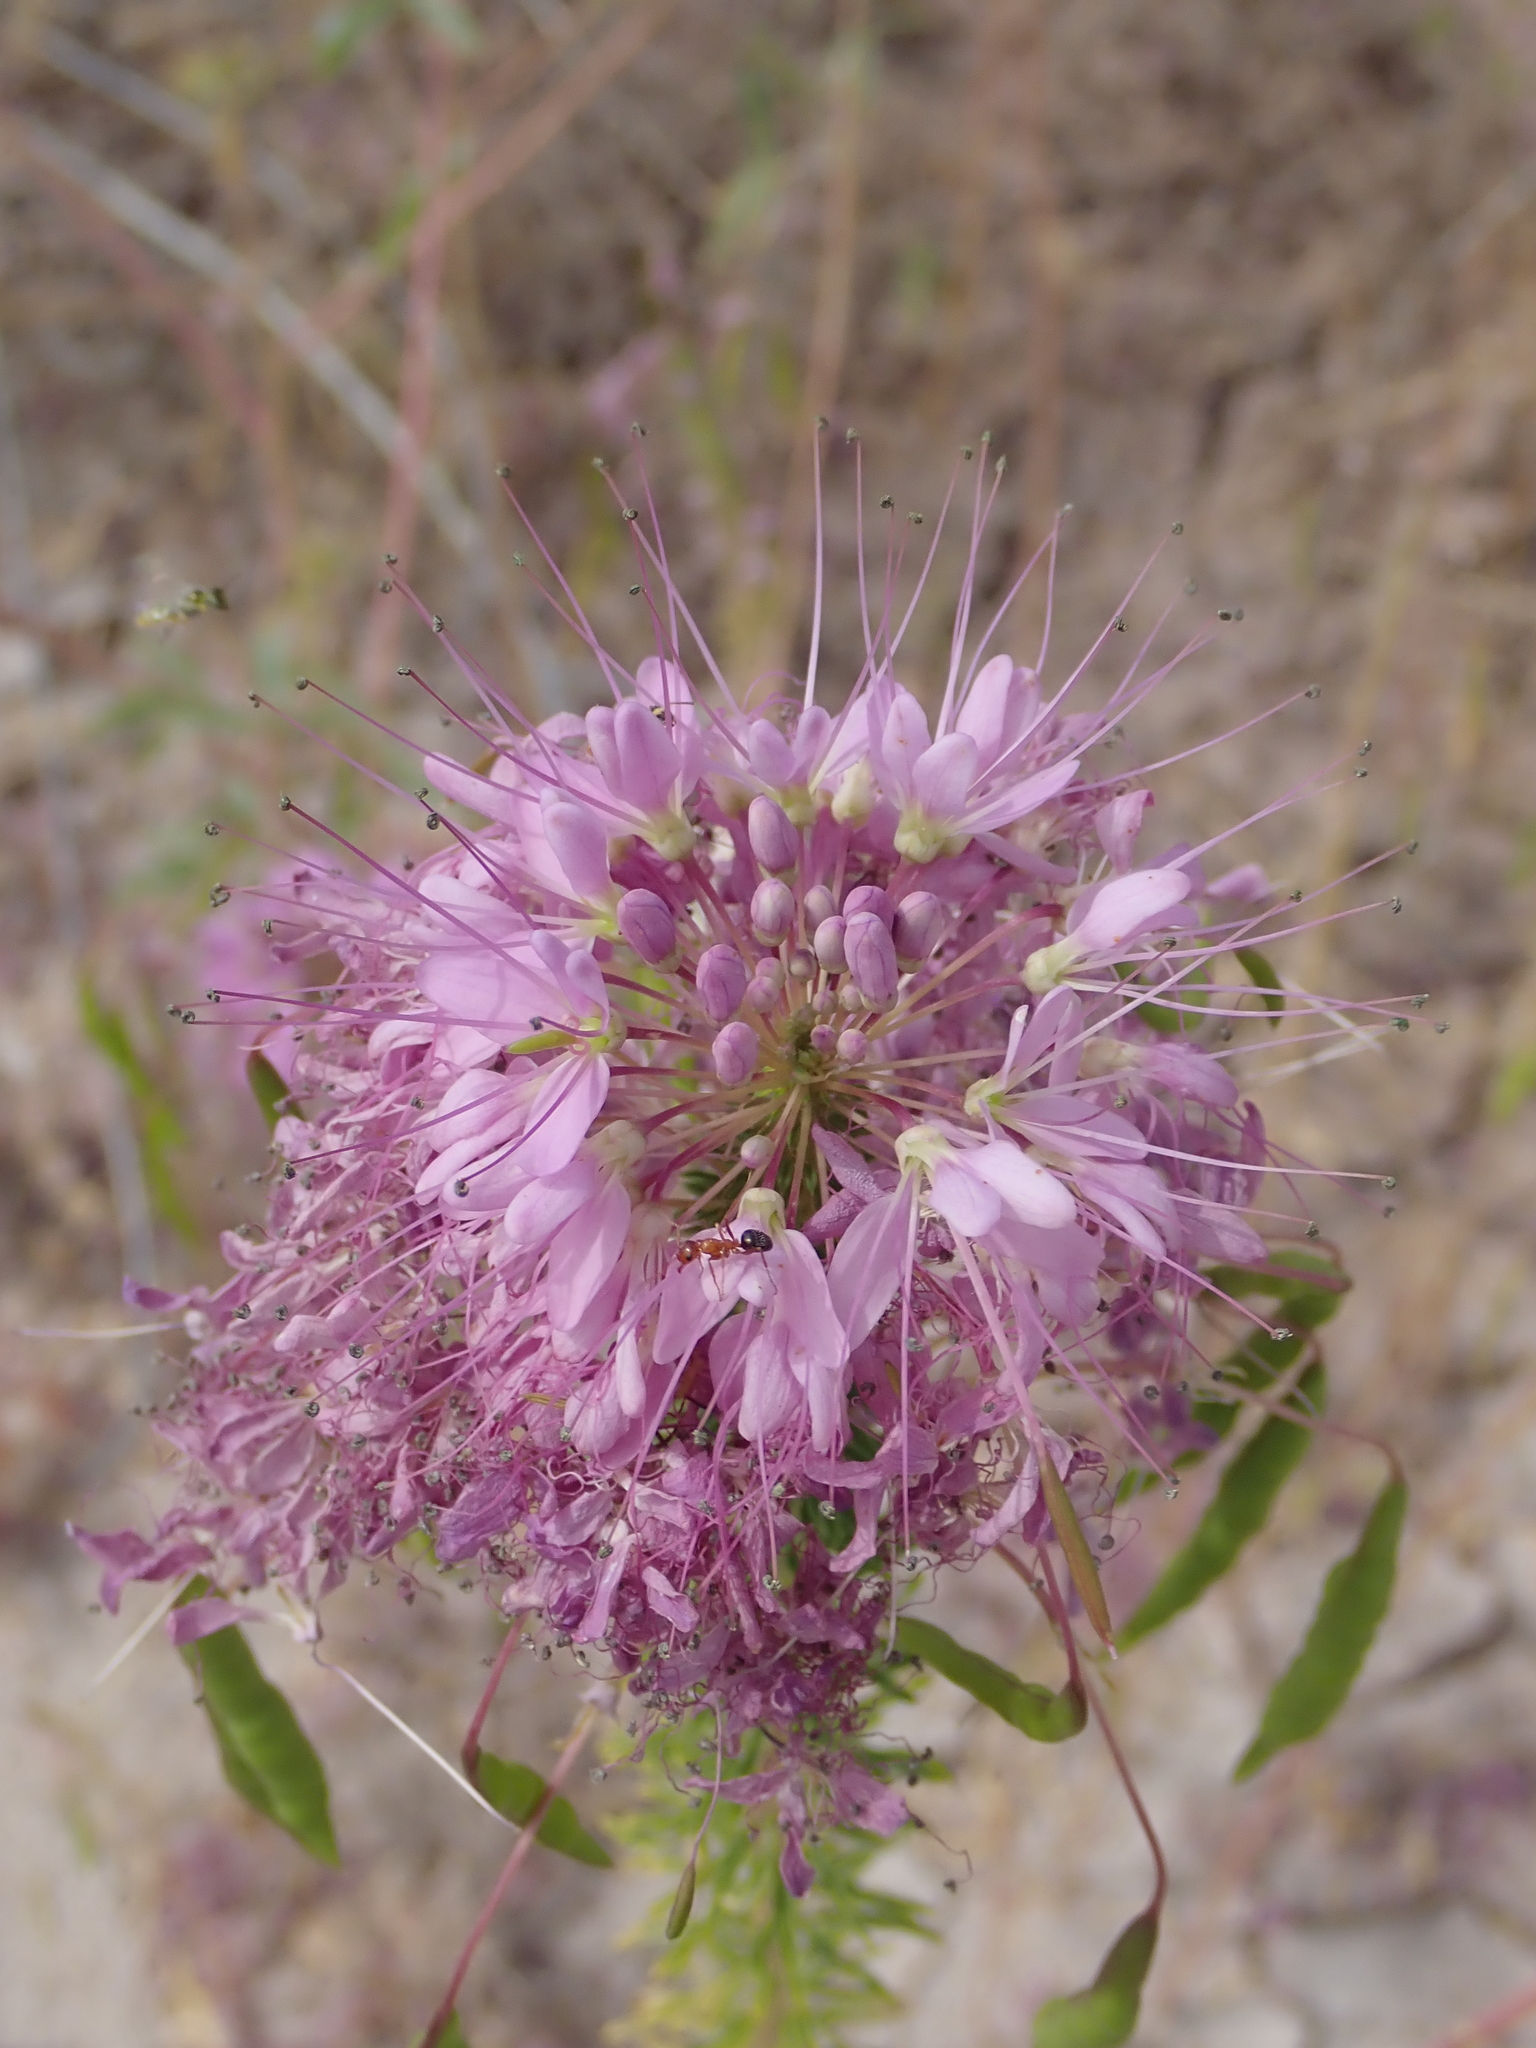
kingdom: Plantae
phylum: Tracheophyta
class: Magnoliopsida
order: Brassicales
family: Cleomaceae
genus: Cleomella
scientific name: Cleomella serrulata
